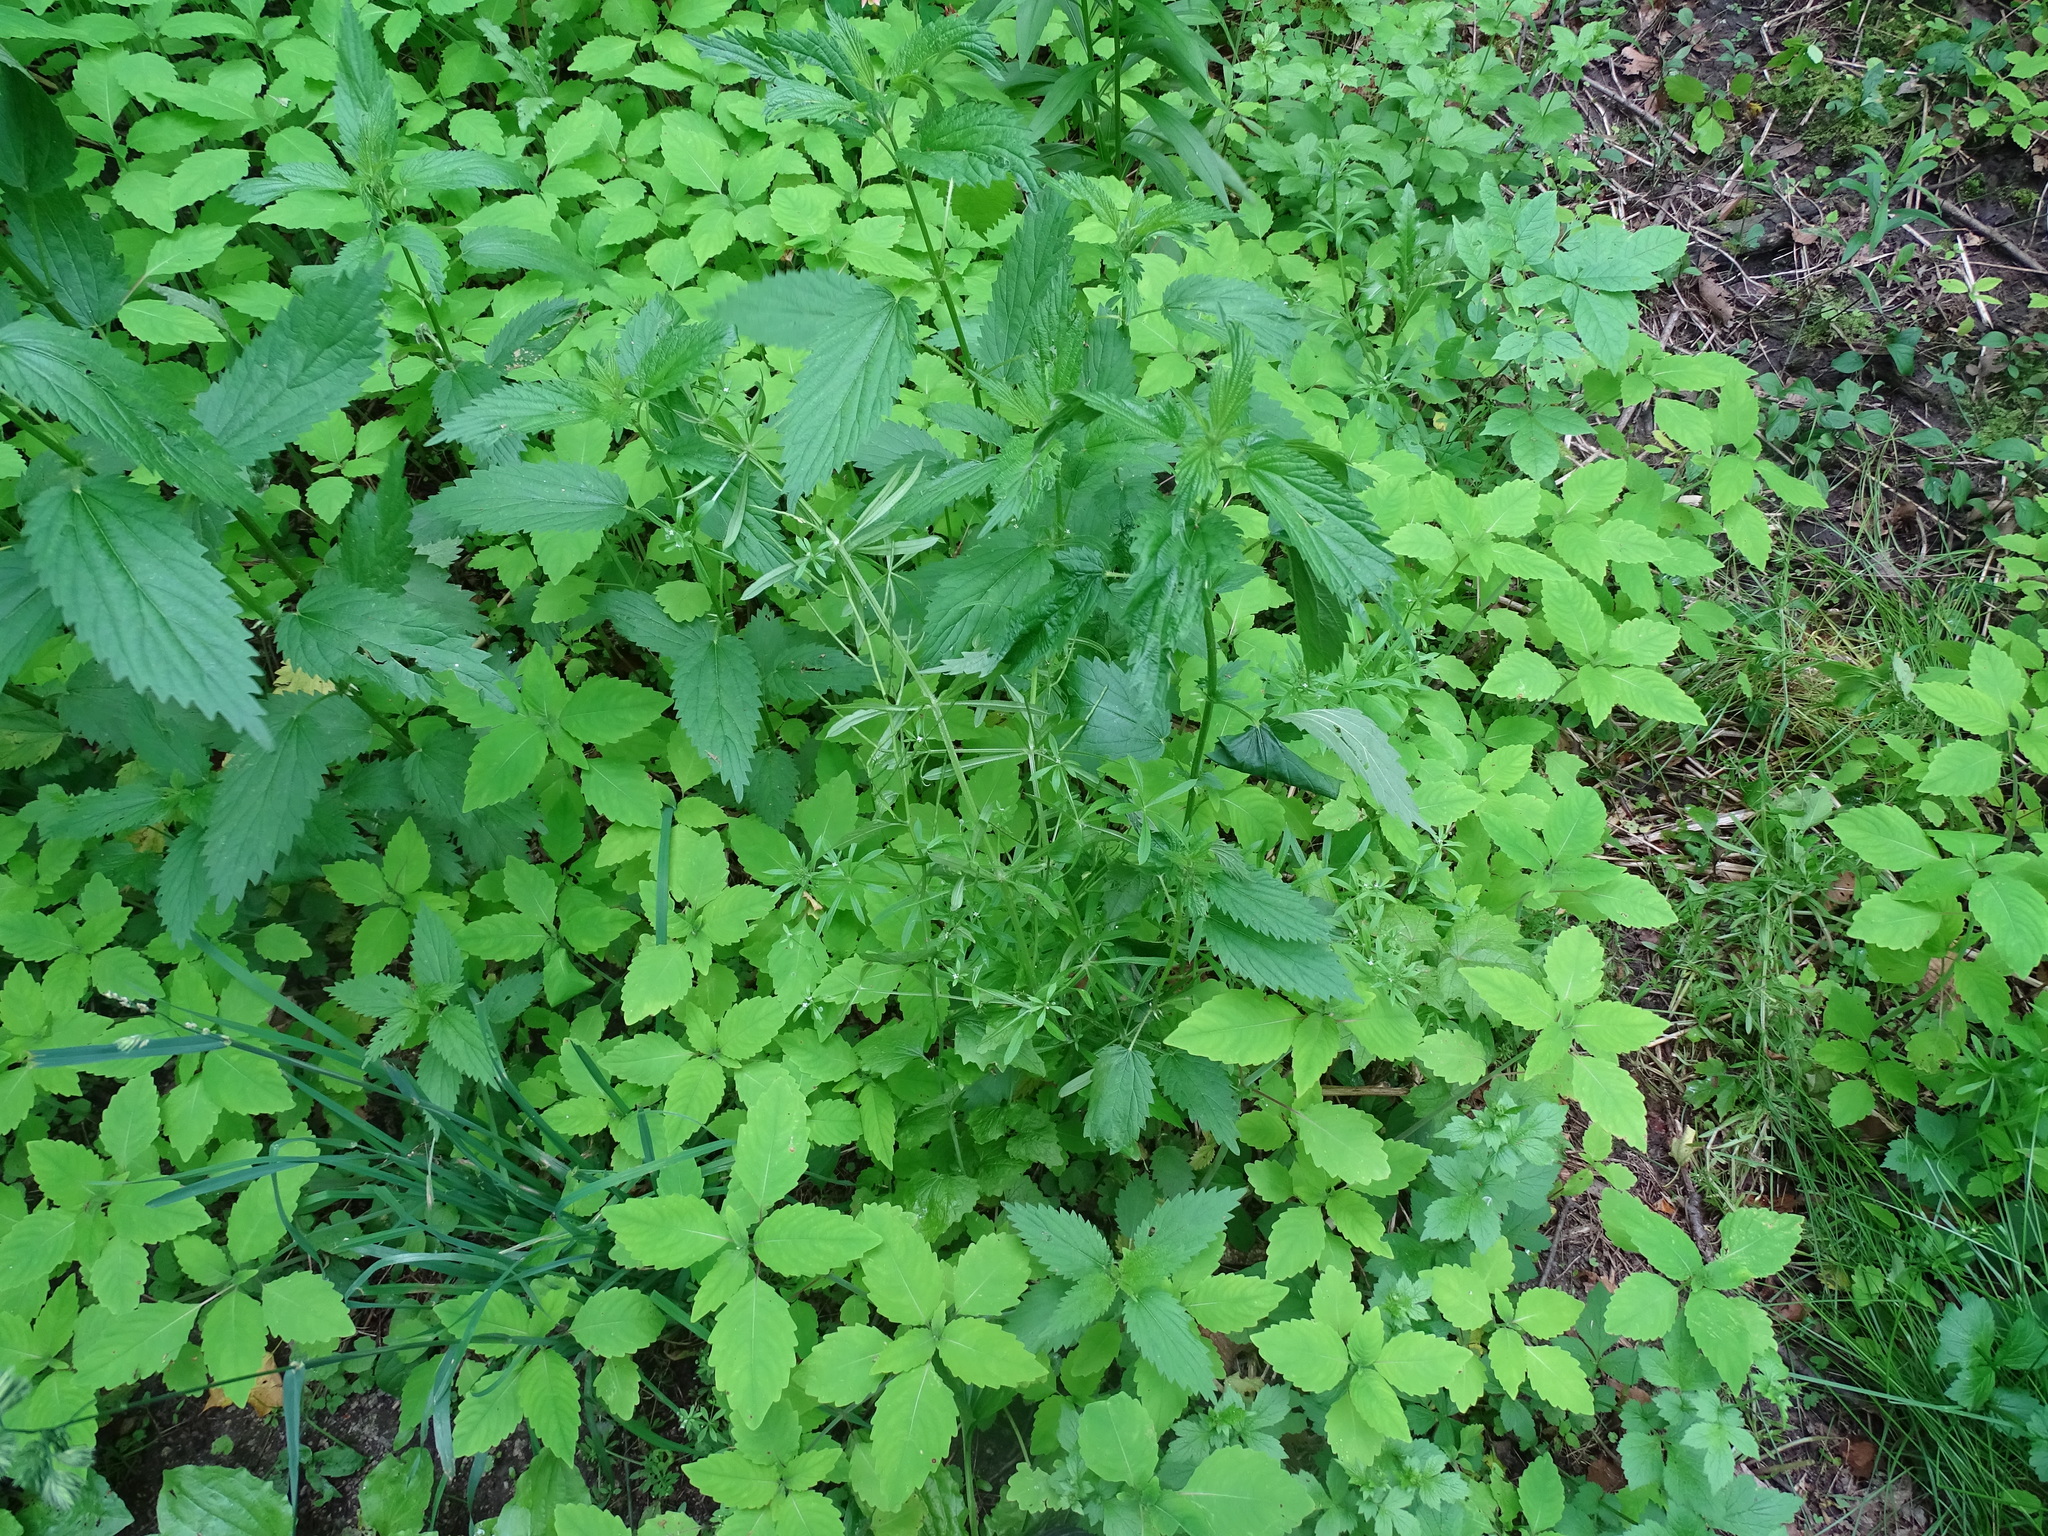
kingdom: Plantae
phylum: Tracheophyta
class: Magnoliopsida
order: Gentianales
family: Rubiaceae
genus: Galium
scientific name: Galium aparine
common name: Cleavers
